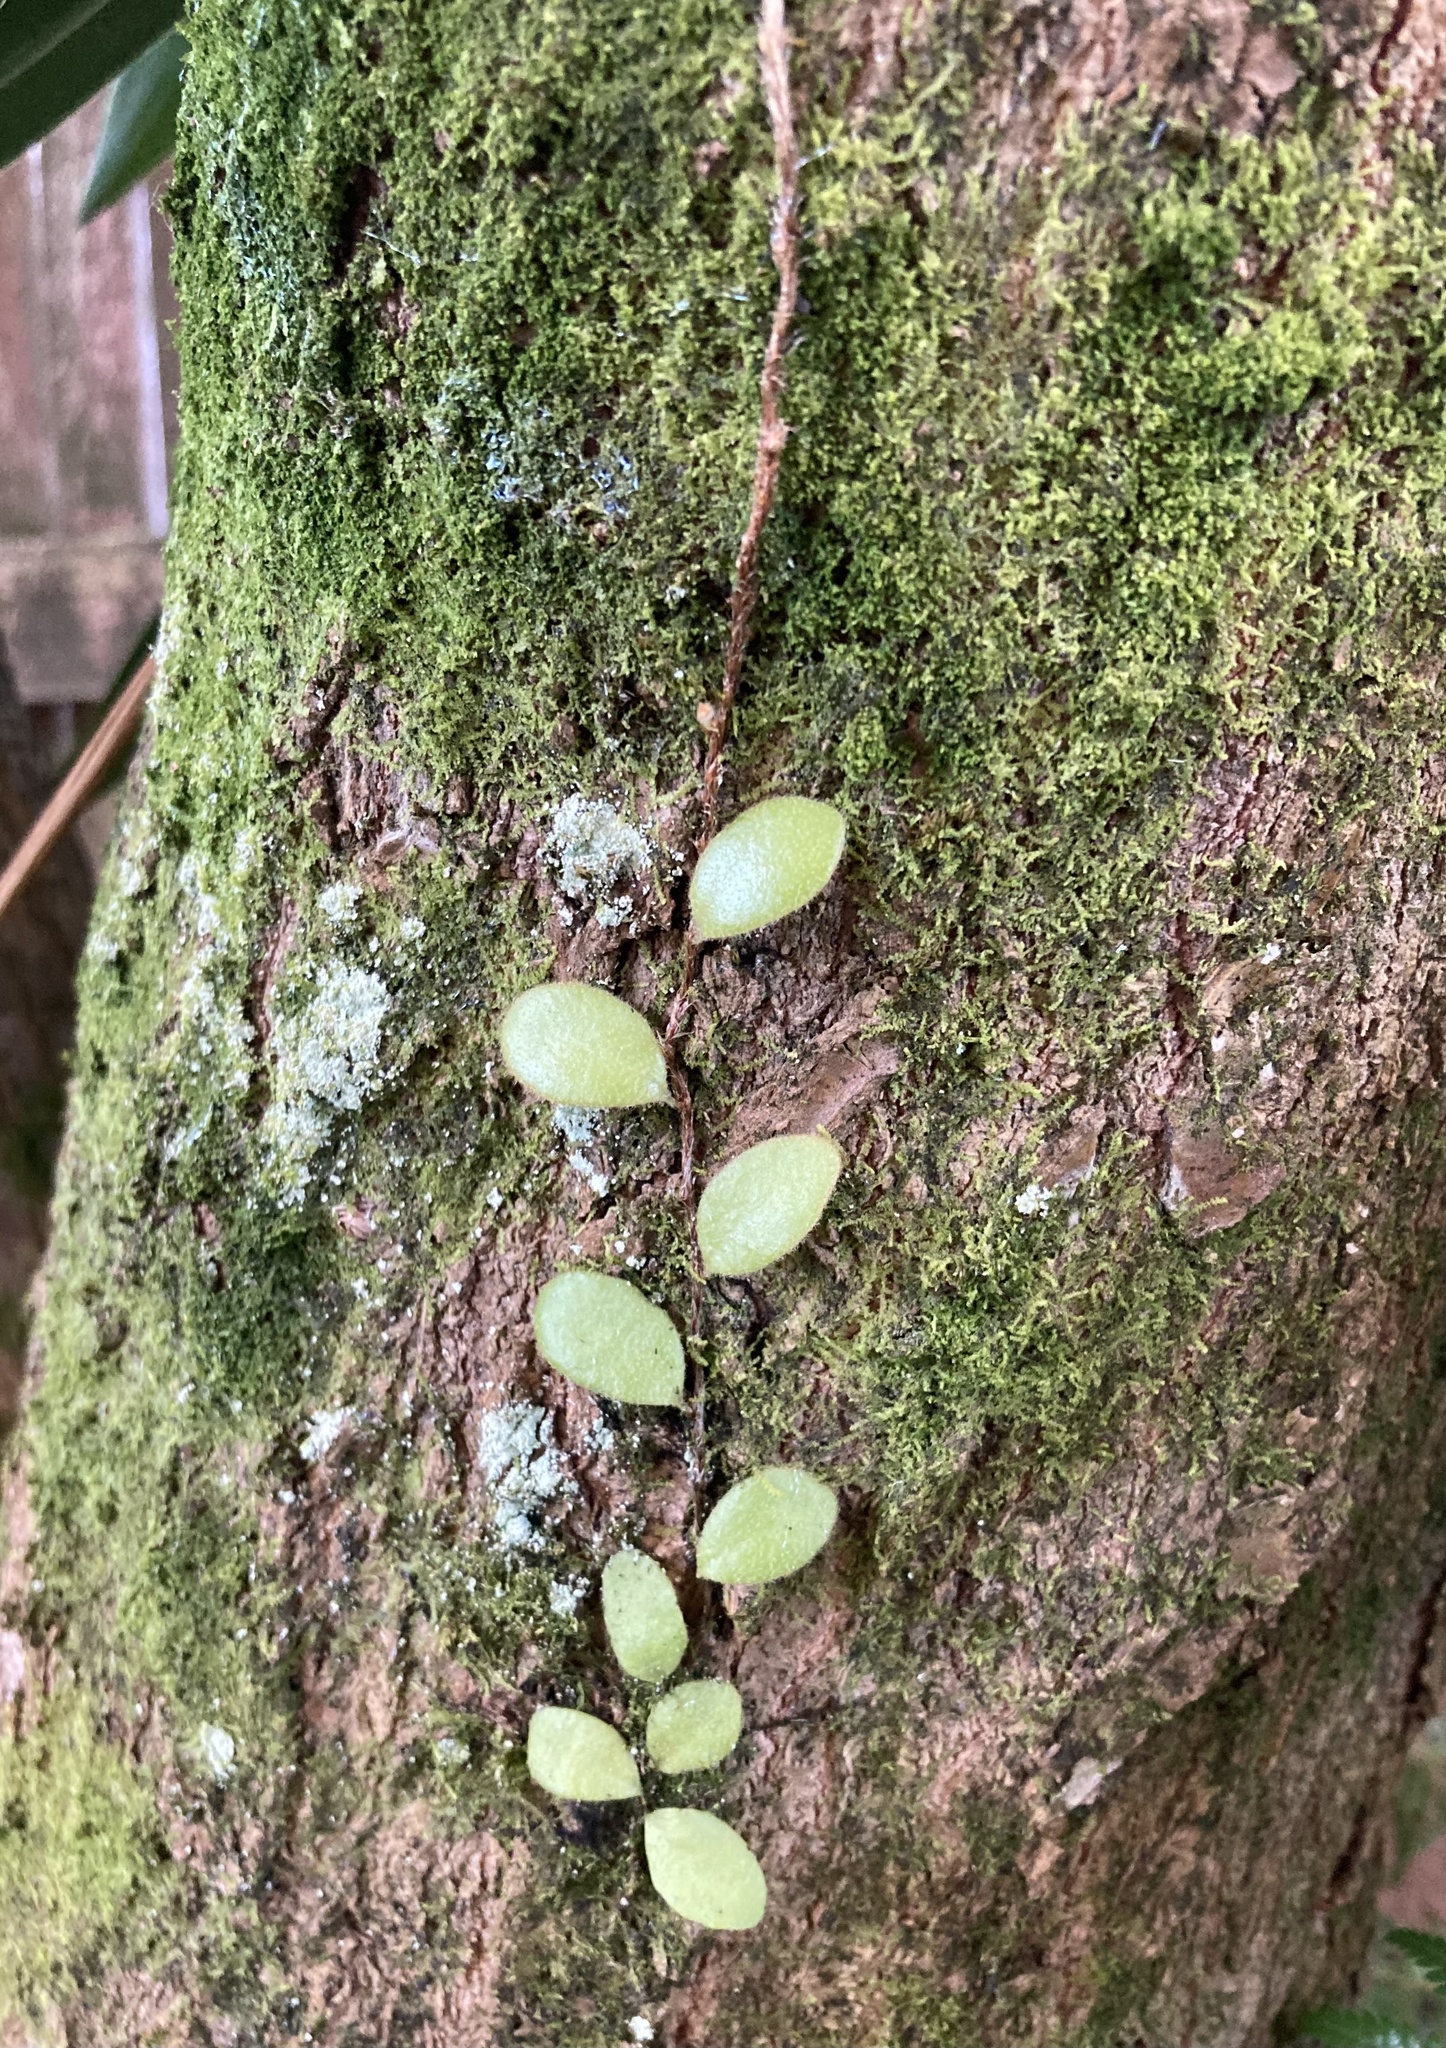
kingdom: Plantae
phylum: Tracheophyta
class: Polypodiopsida
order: Polypodiales
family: Polypodiaceae
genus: Pyrrosia
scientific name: Pyrrosia eleagnifolia
